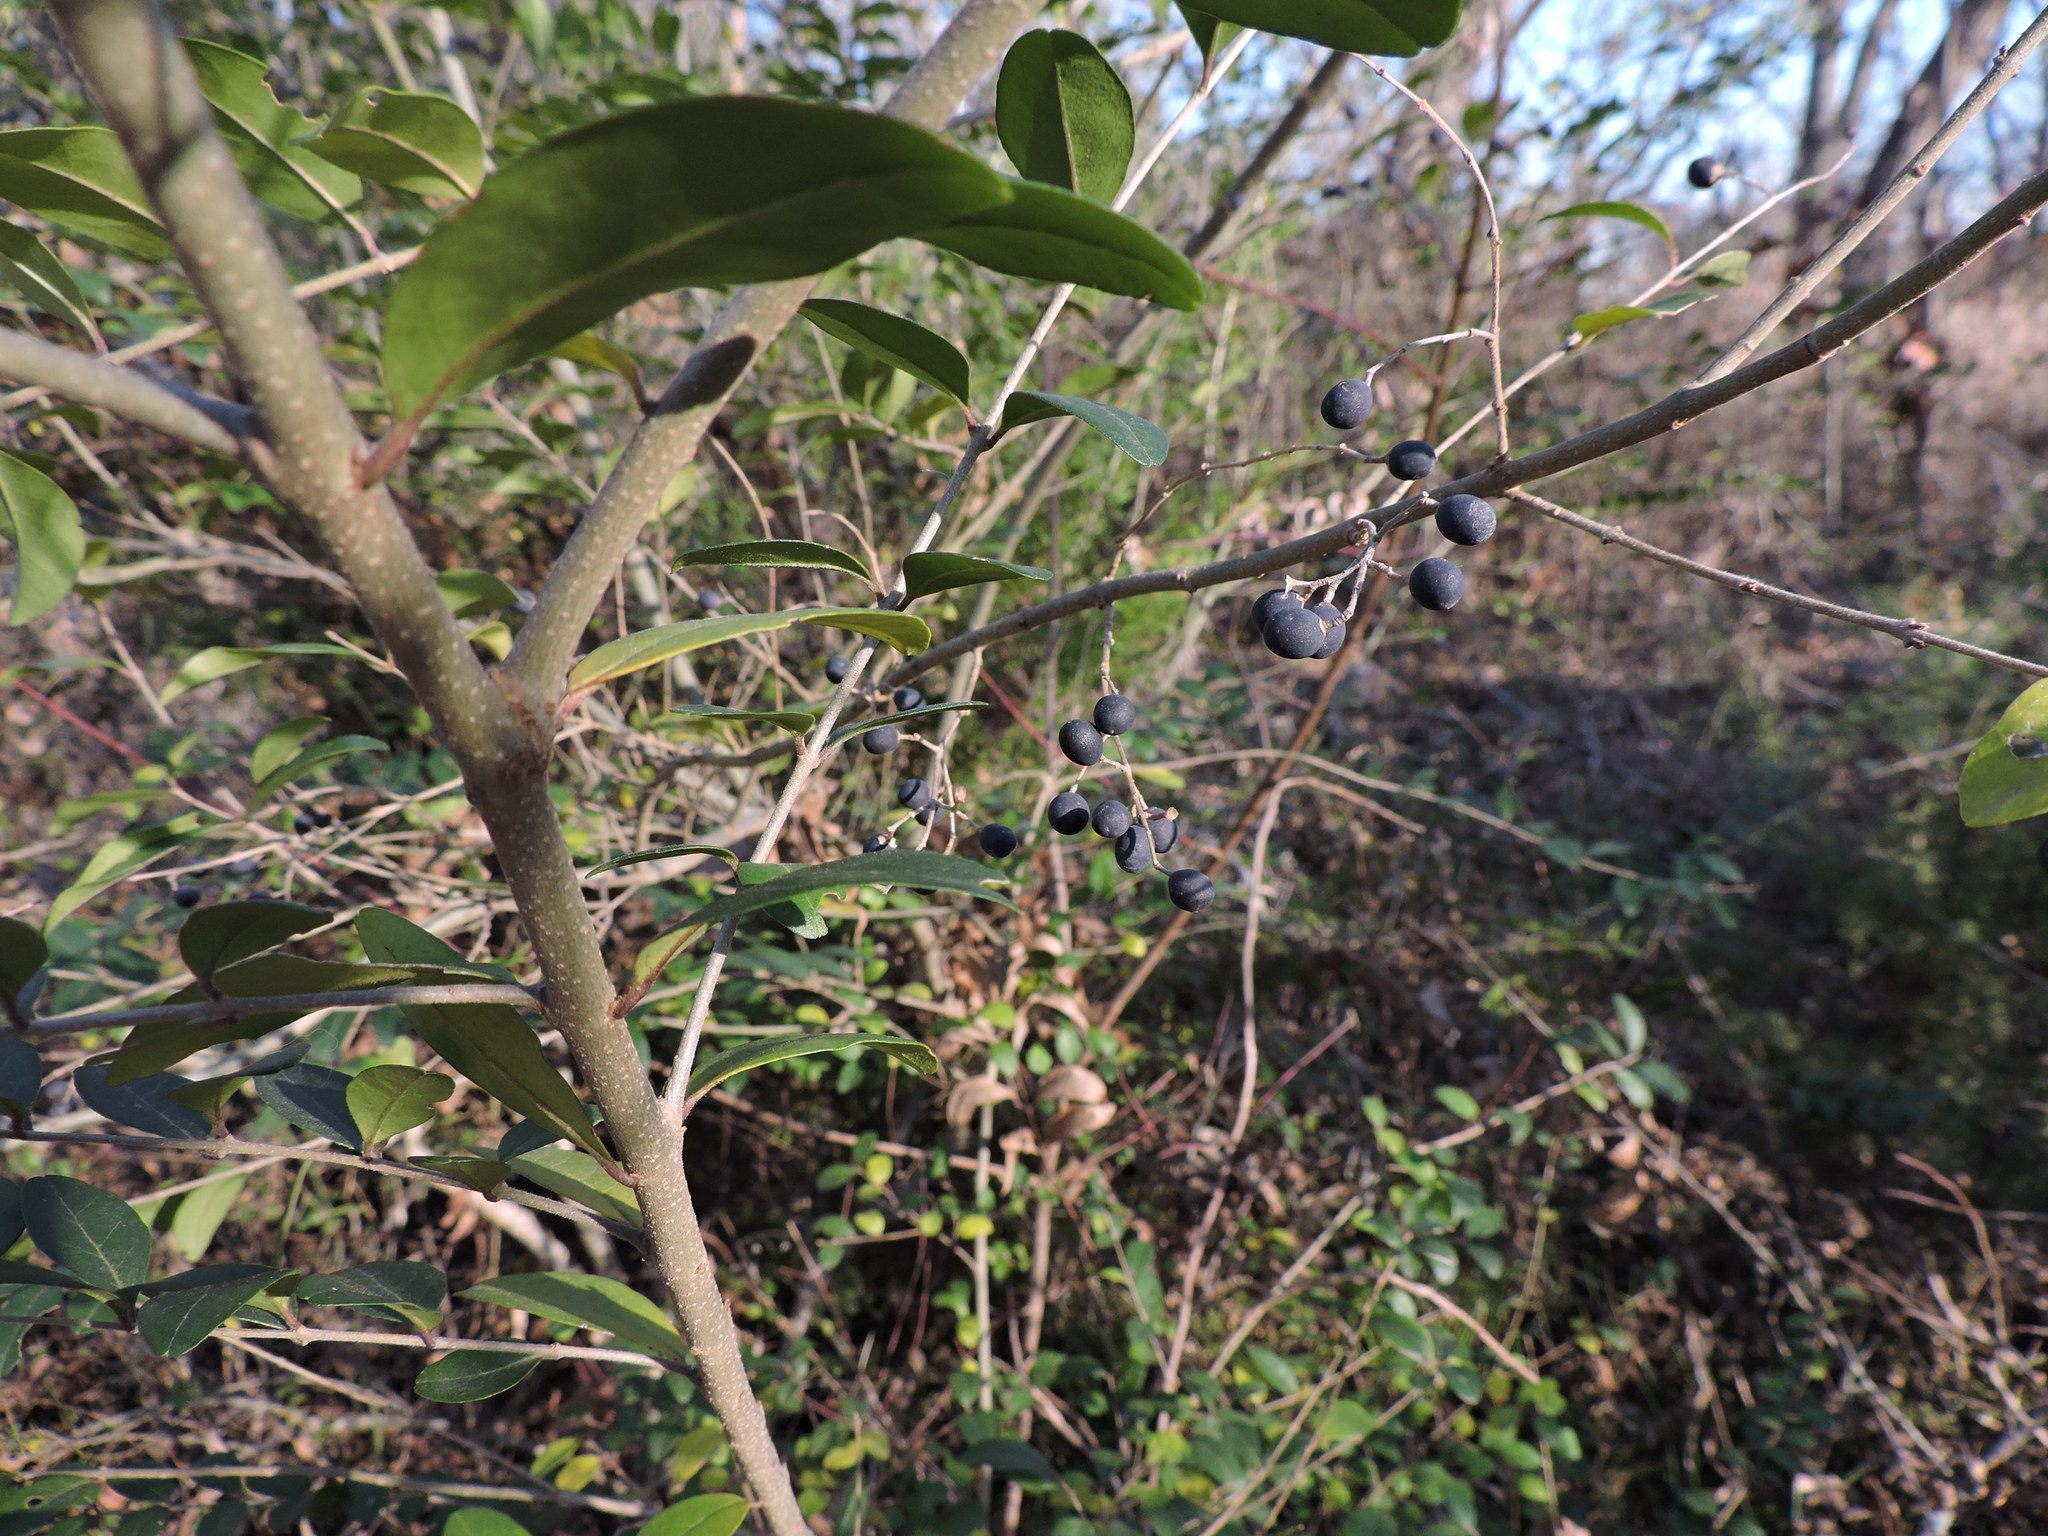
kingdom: Plantae
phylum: Tracheophyta
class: Magnoliopsida
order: Lamiales
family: Oleaceae
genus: Ligustrum
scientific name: Ligustrum sinense
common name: Chinese privet
